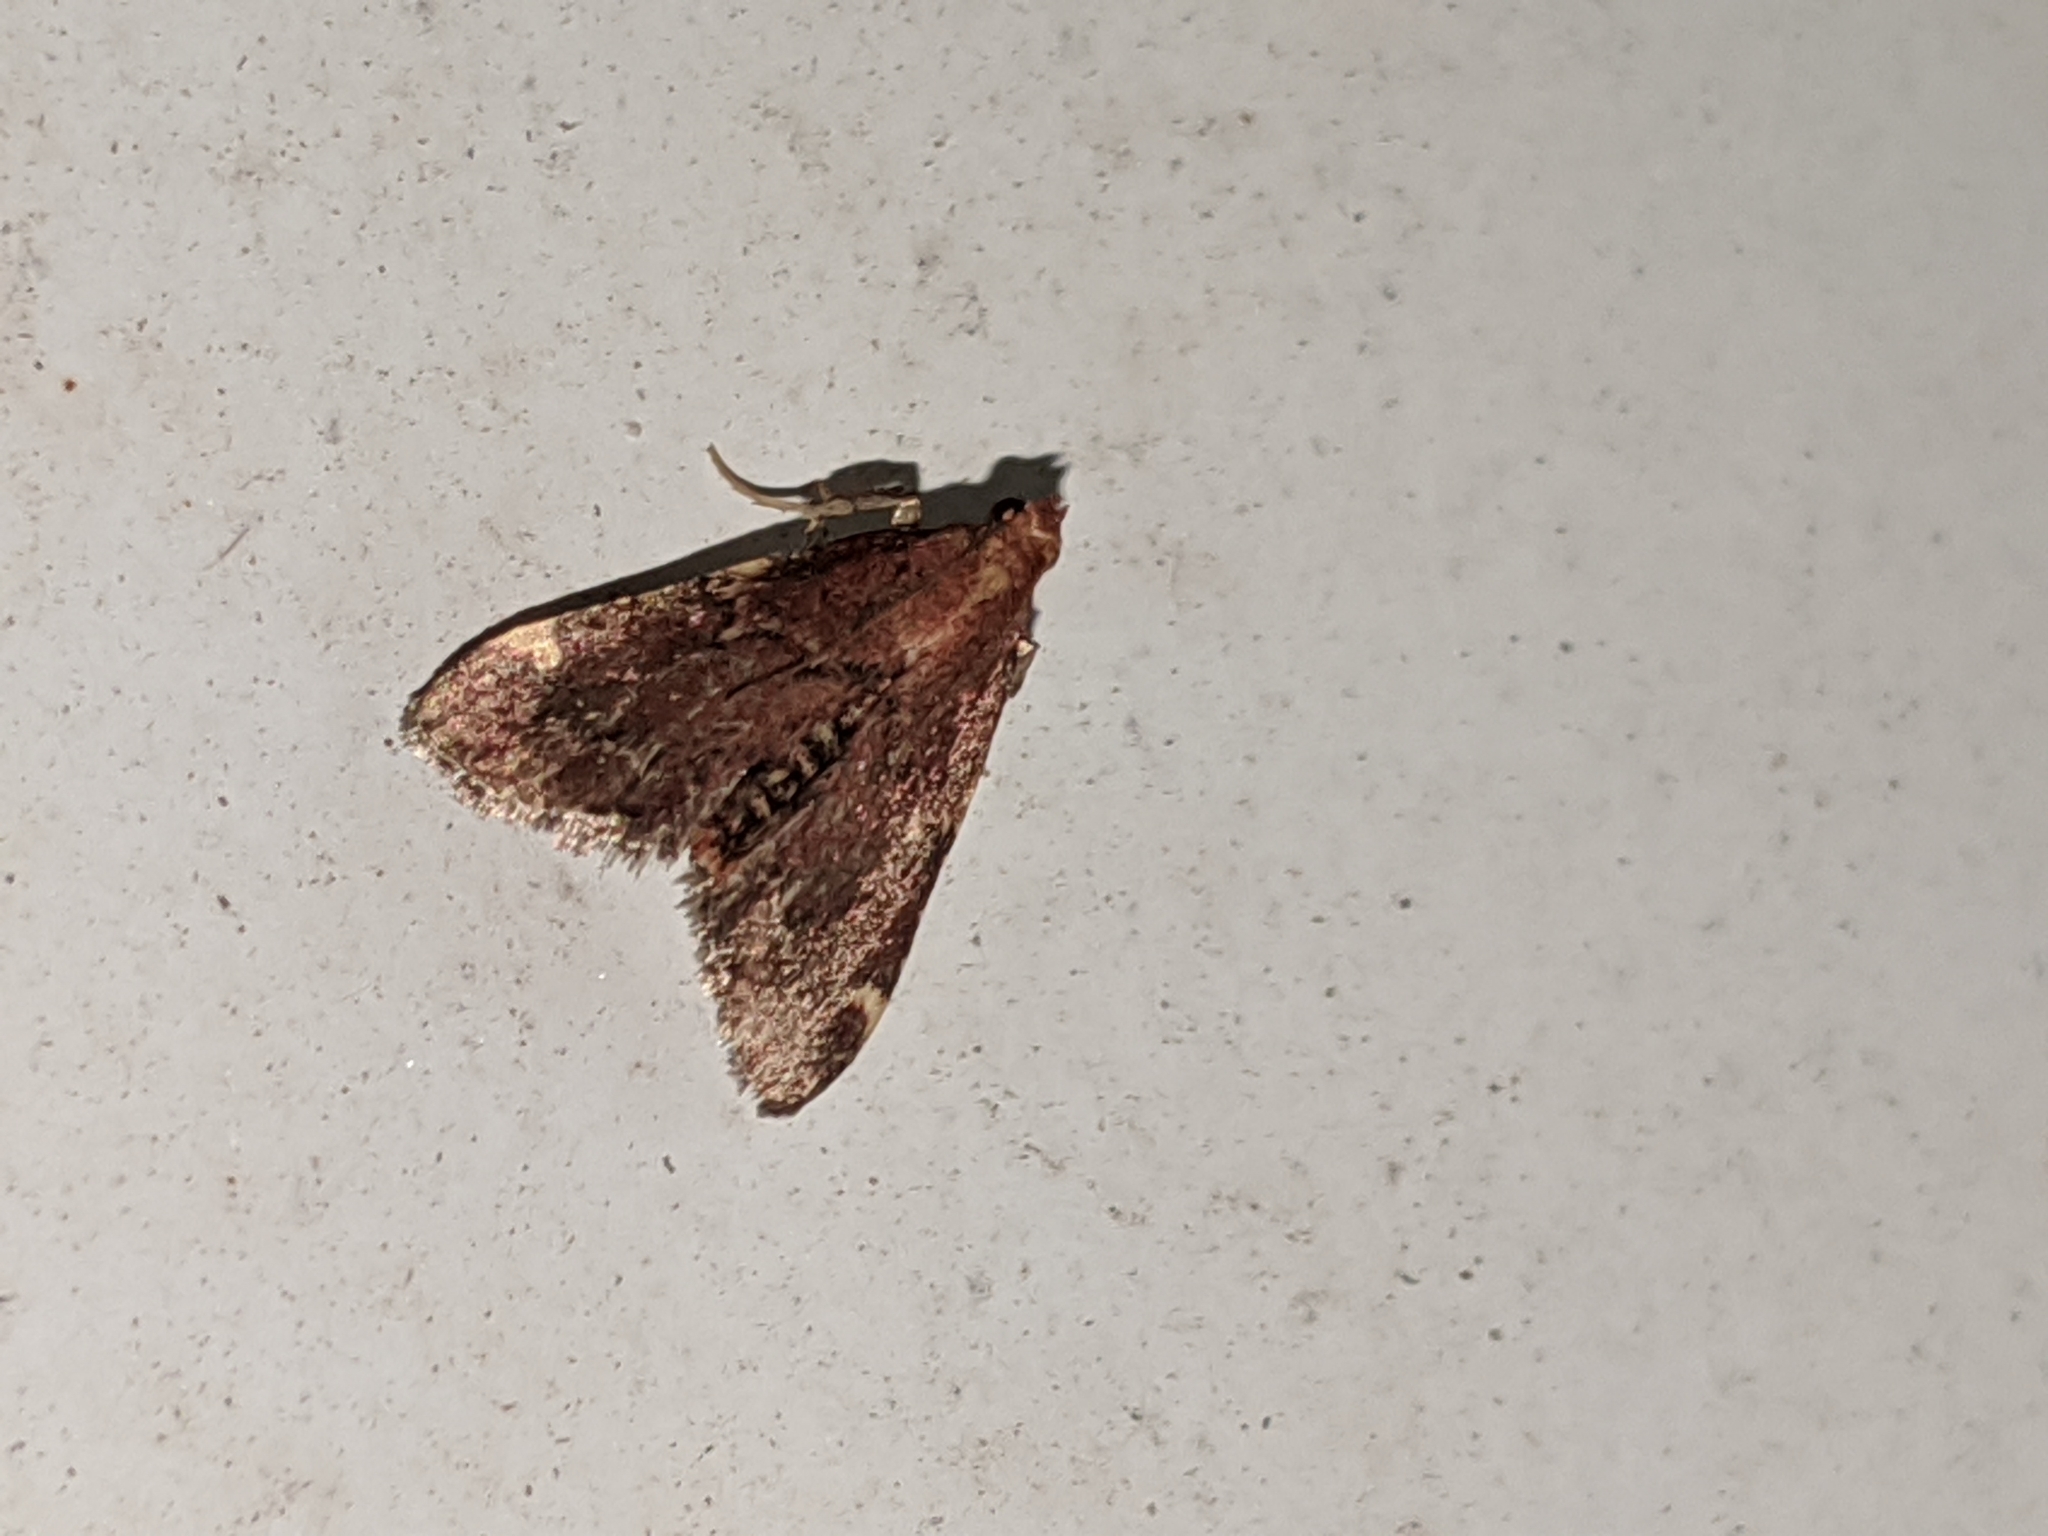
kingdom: Animalia
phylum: Arthropoda
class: Insecta
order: Lepidoptera
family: Pyralidae
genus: Hypsopygia
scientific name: Hypsopygia intermedialis
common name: Red-shawled moth
